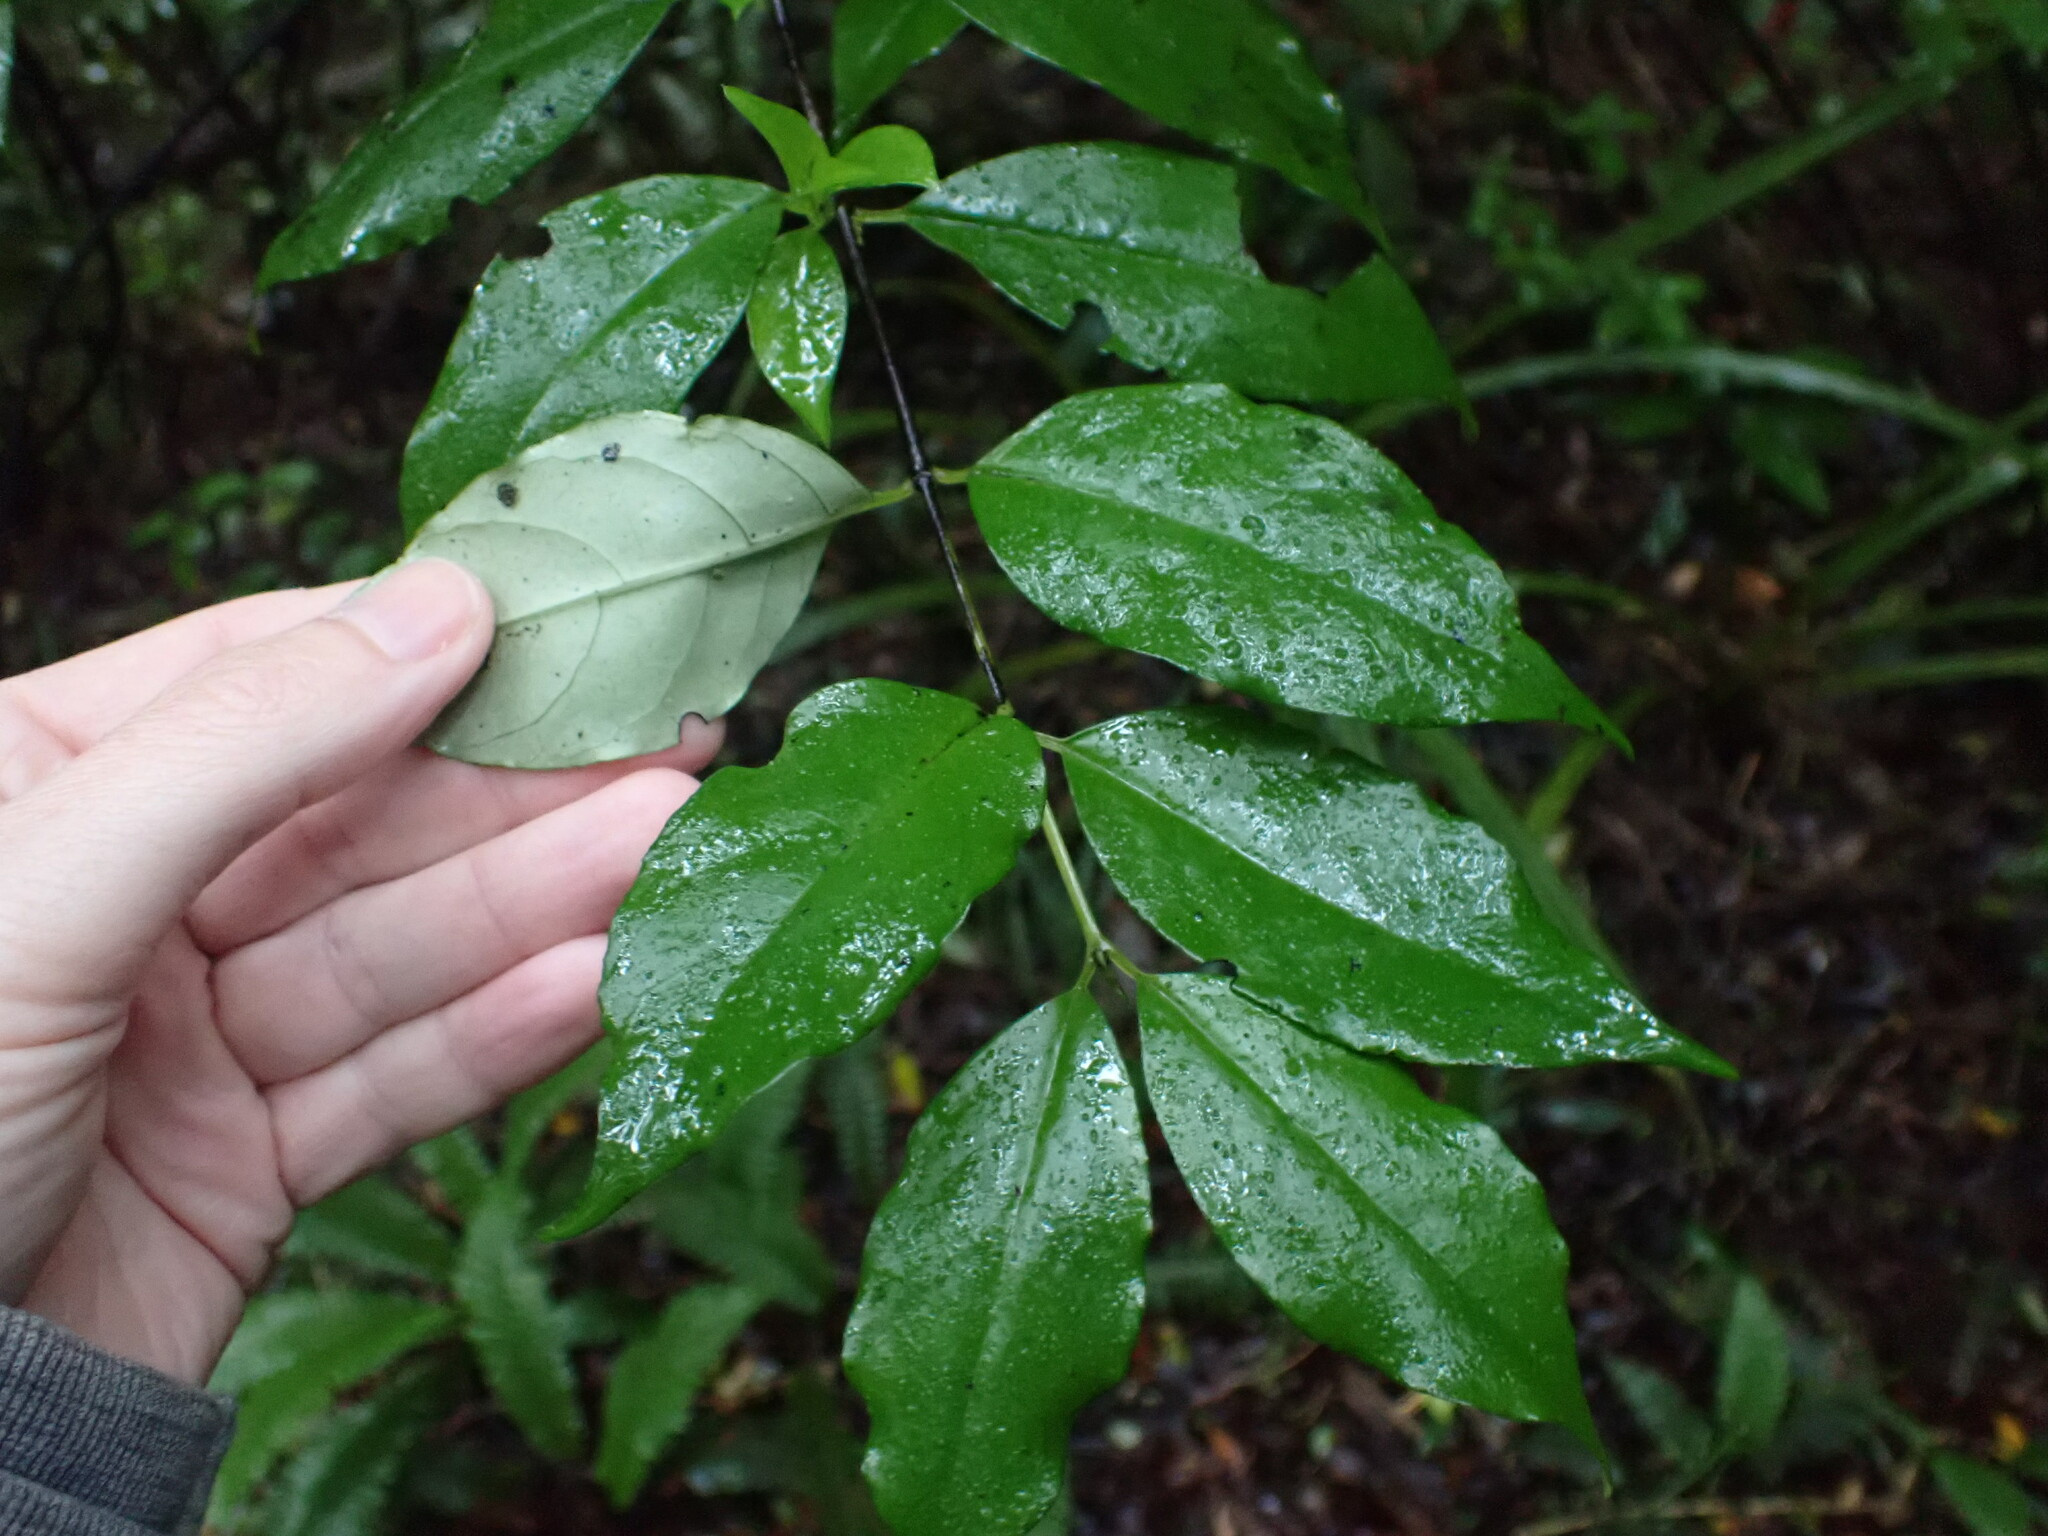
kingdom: Plantae
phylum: Tracheophyta
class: Magnoliopsida
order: Gentianales
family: Loganiaceae
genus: Geniostoma
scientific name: Geniostoma ligustrifolium
